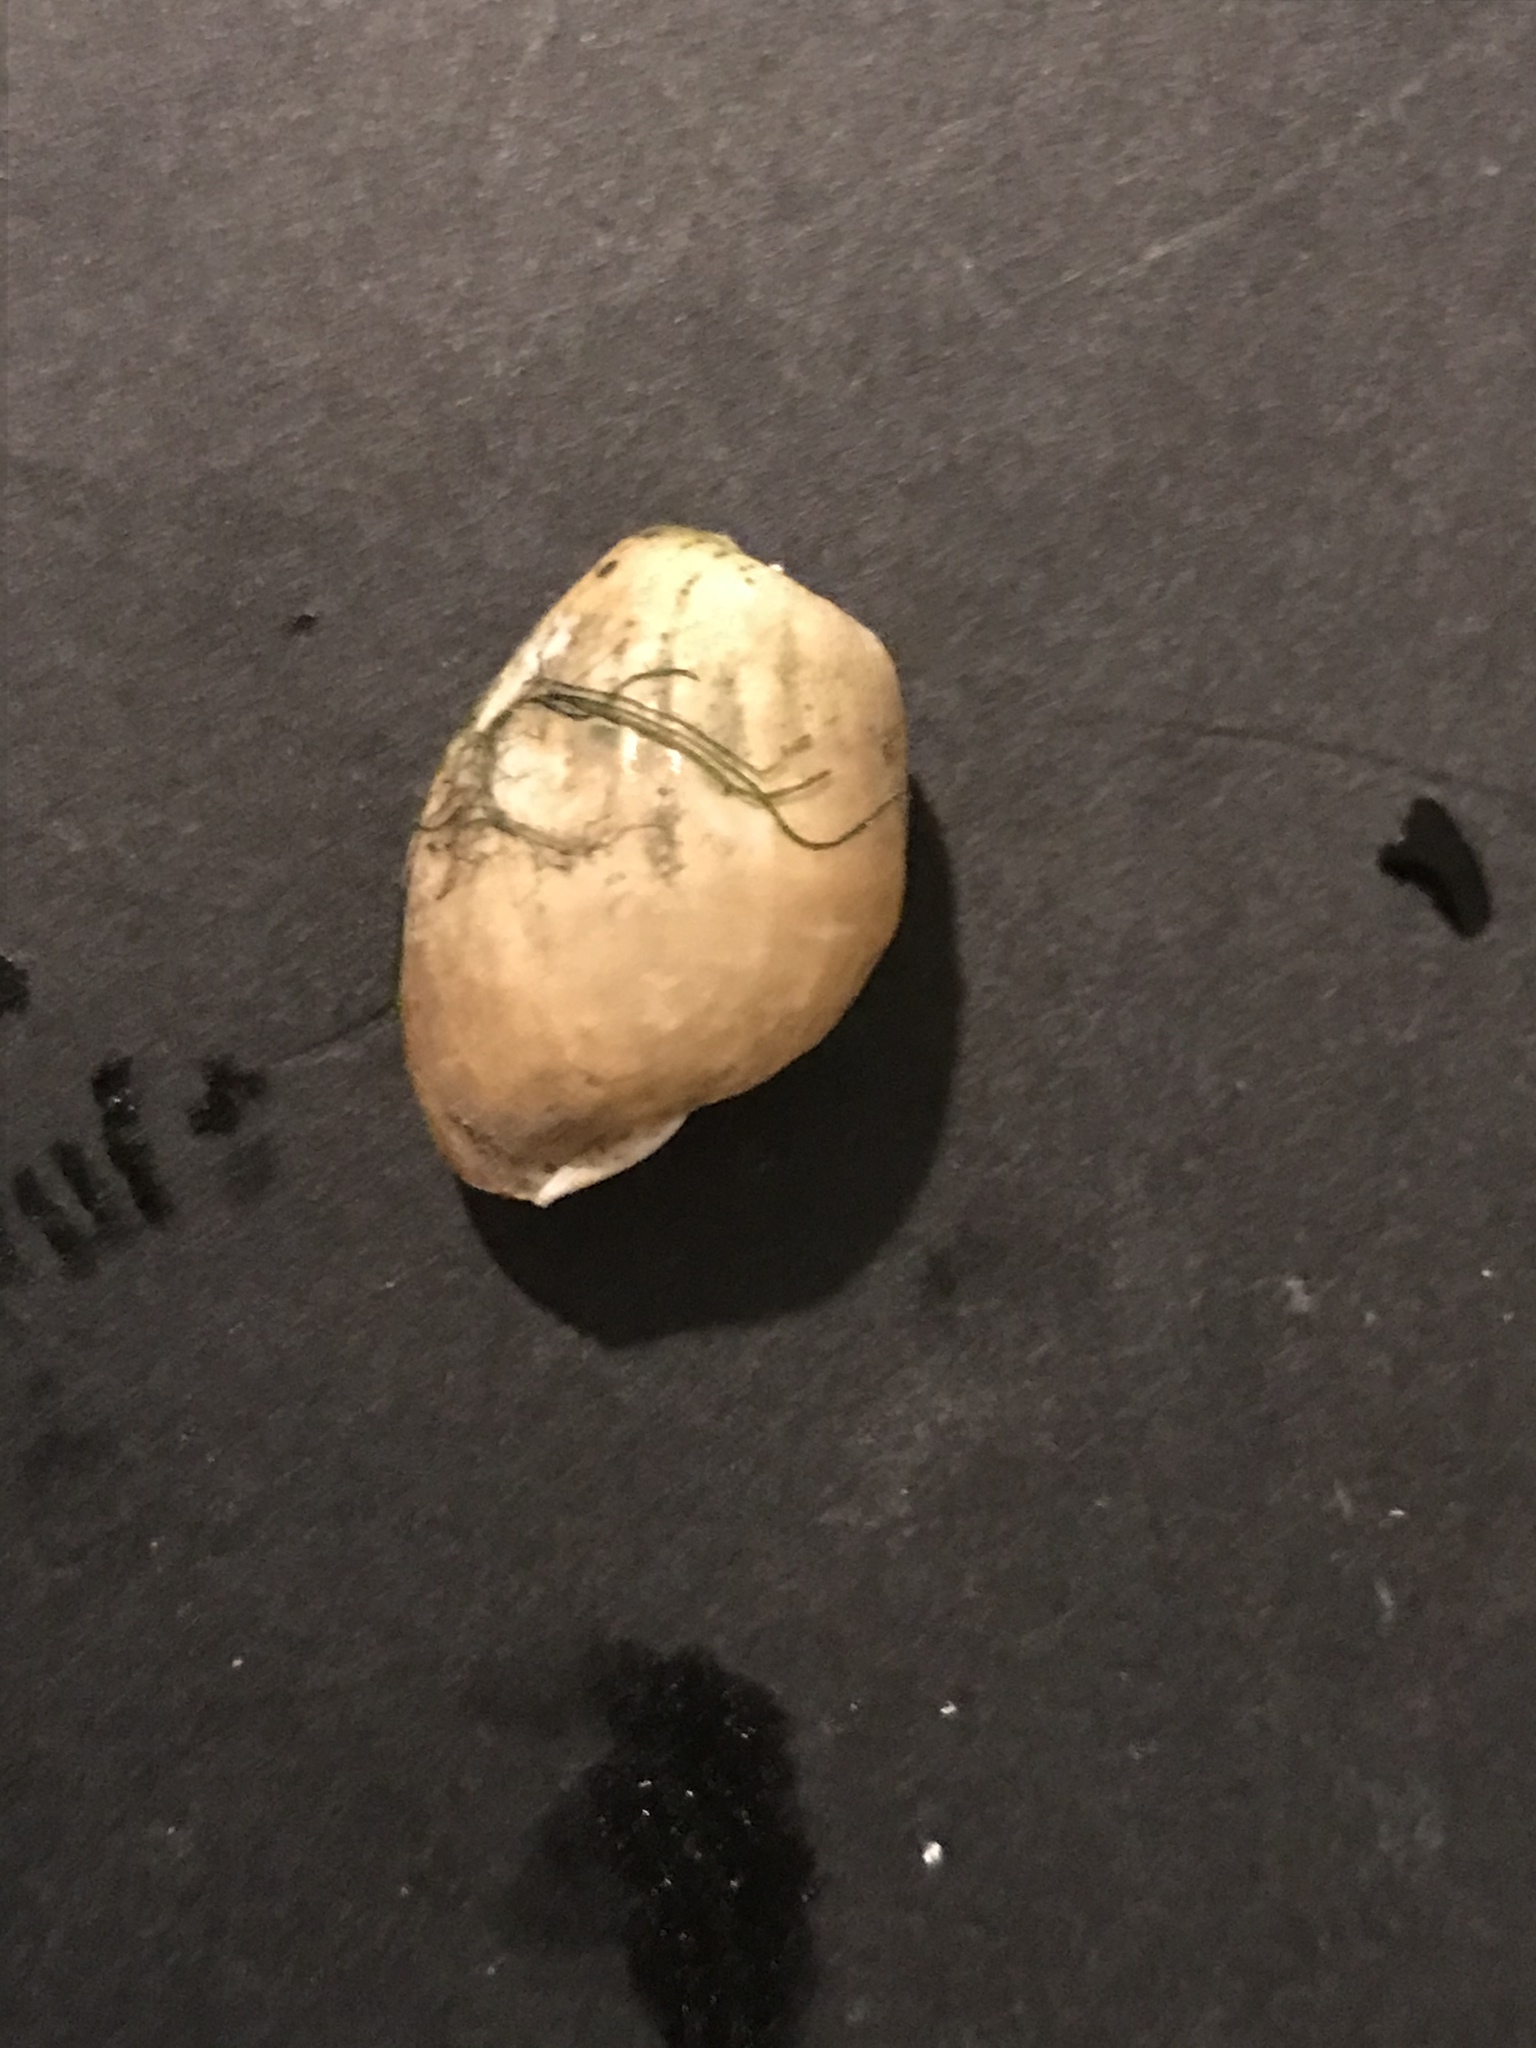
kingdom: Animalia
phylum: Mollusca
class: Gastropoda
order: Cephalaspidea
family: Haminoeidae
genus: Haminoea
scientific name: Haminoea vesicula
